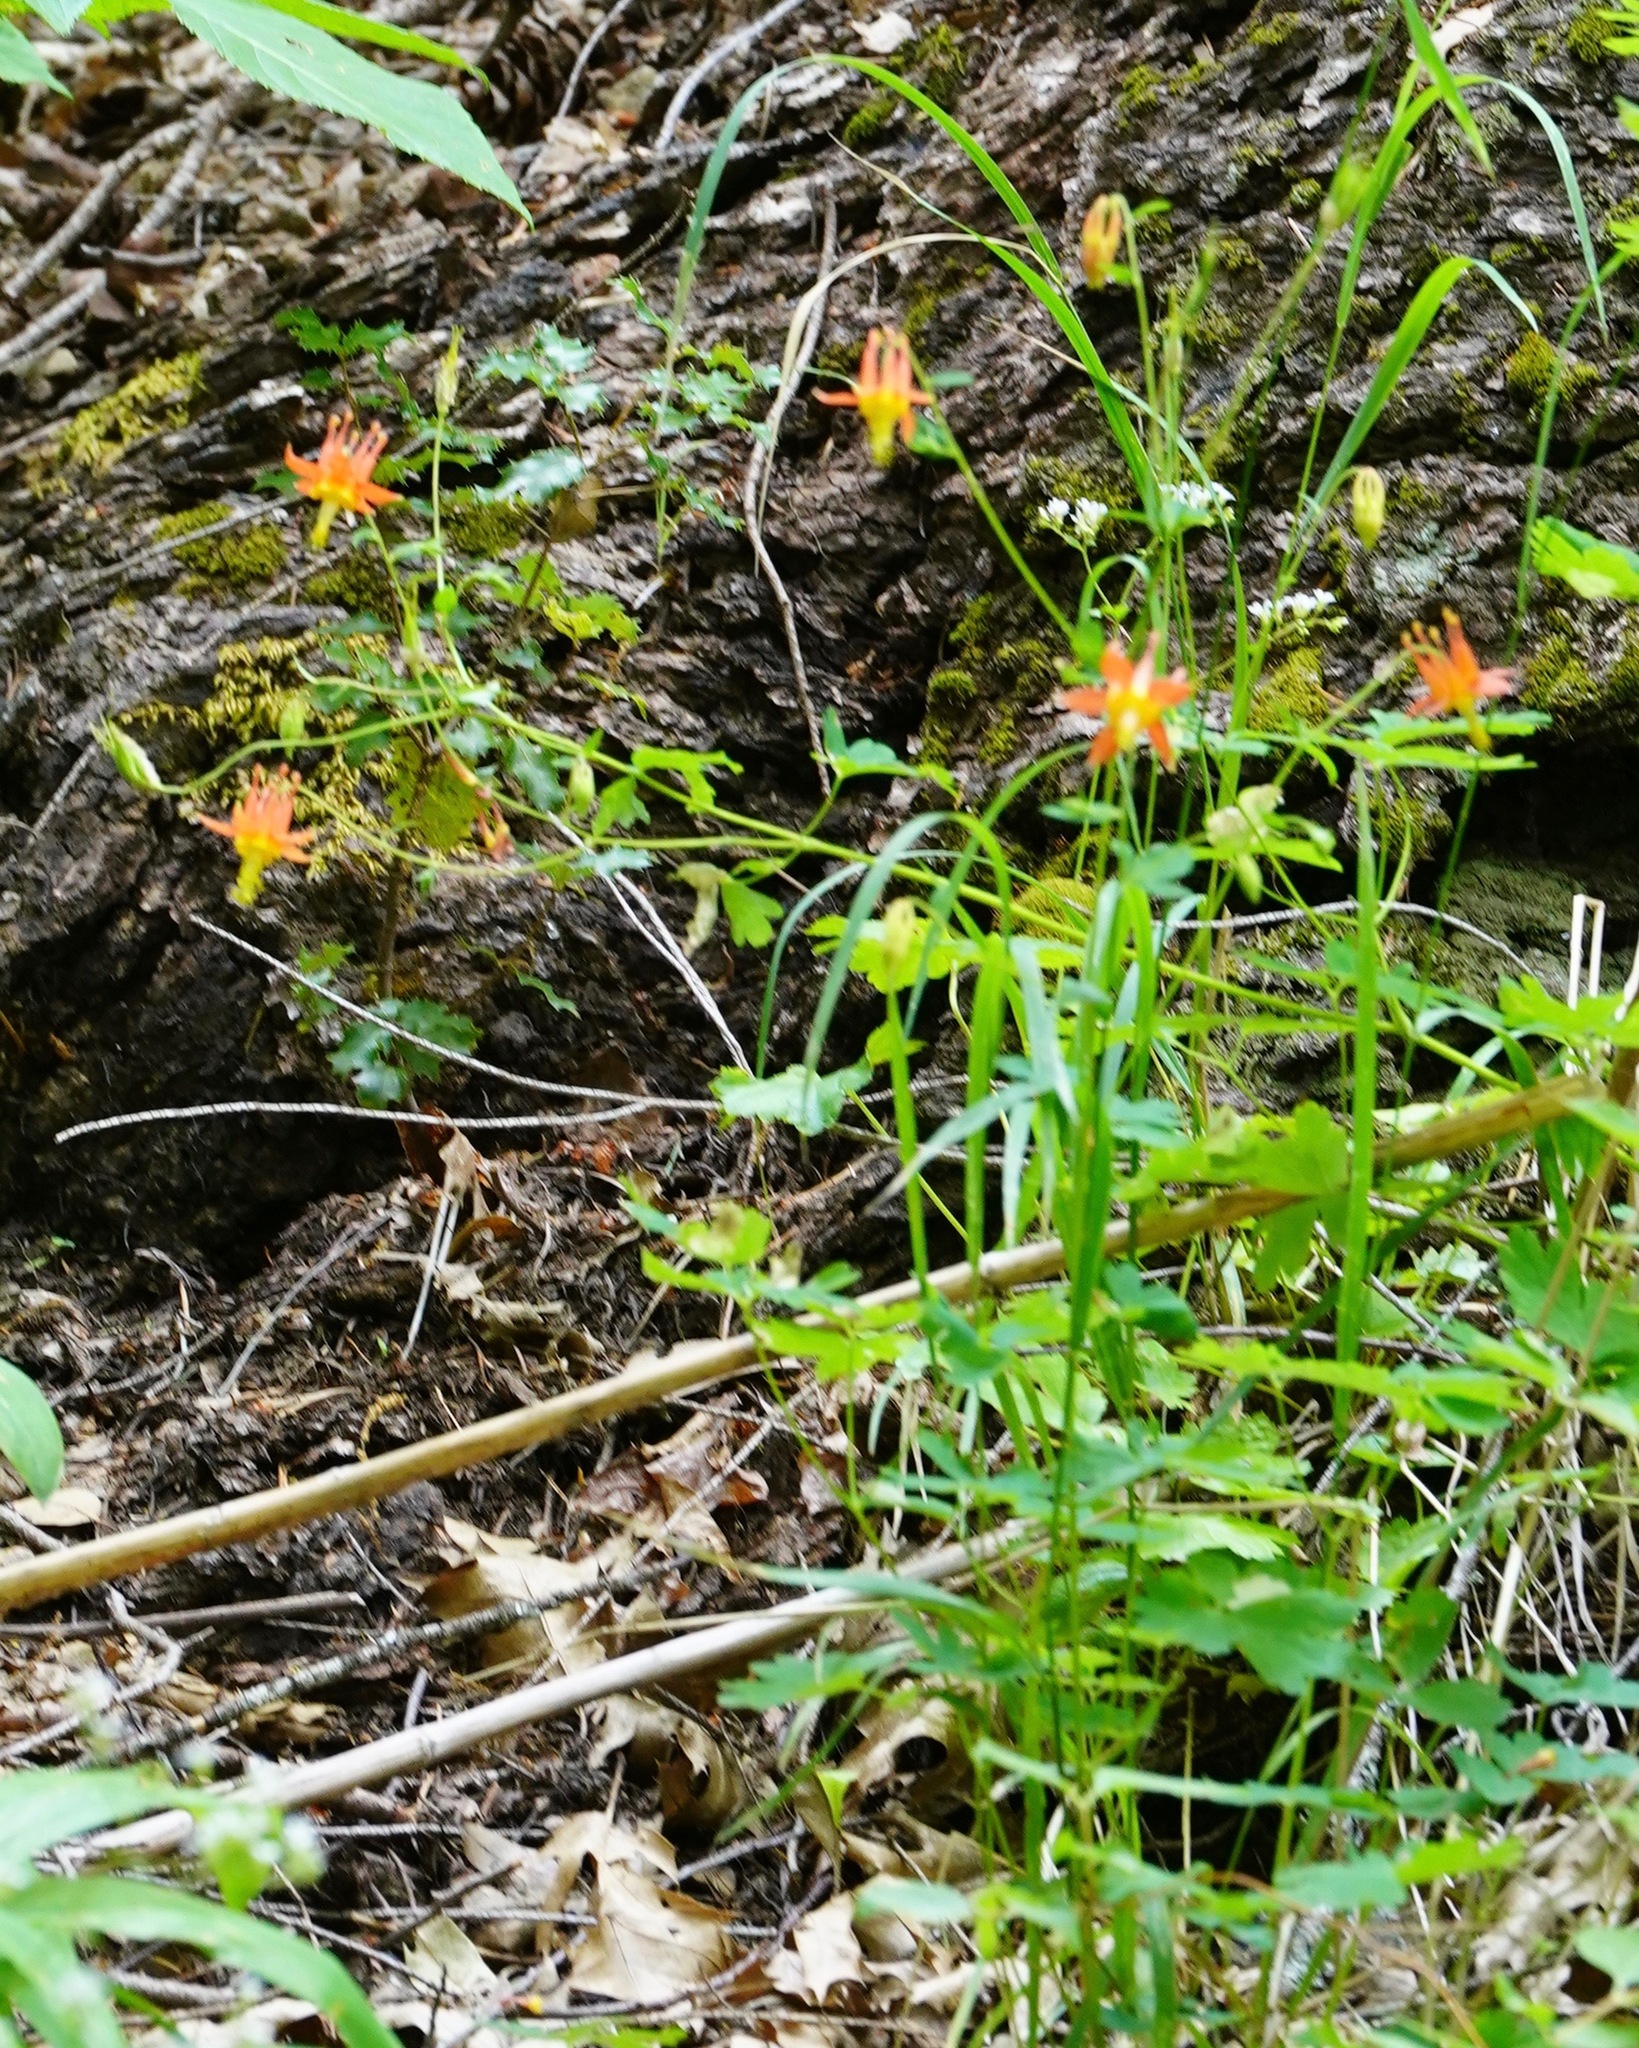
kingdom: Plantae
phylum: Tracheophyta
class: Magnoliopsida
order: Ranunculales
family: Ranunculaceae
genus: Aquilegia
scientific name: Aquilegia formosa
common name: Sitka columbine
